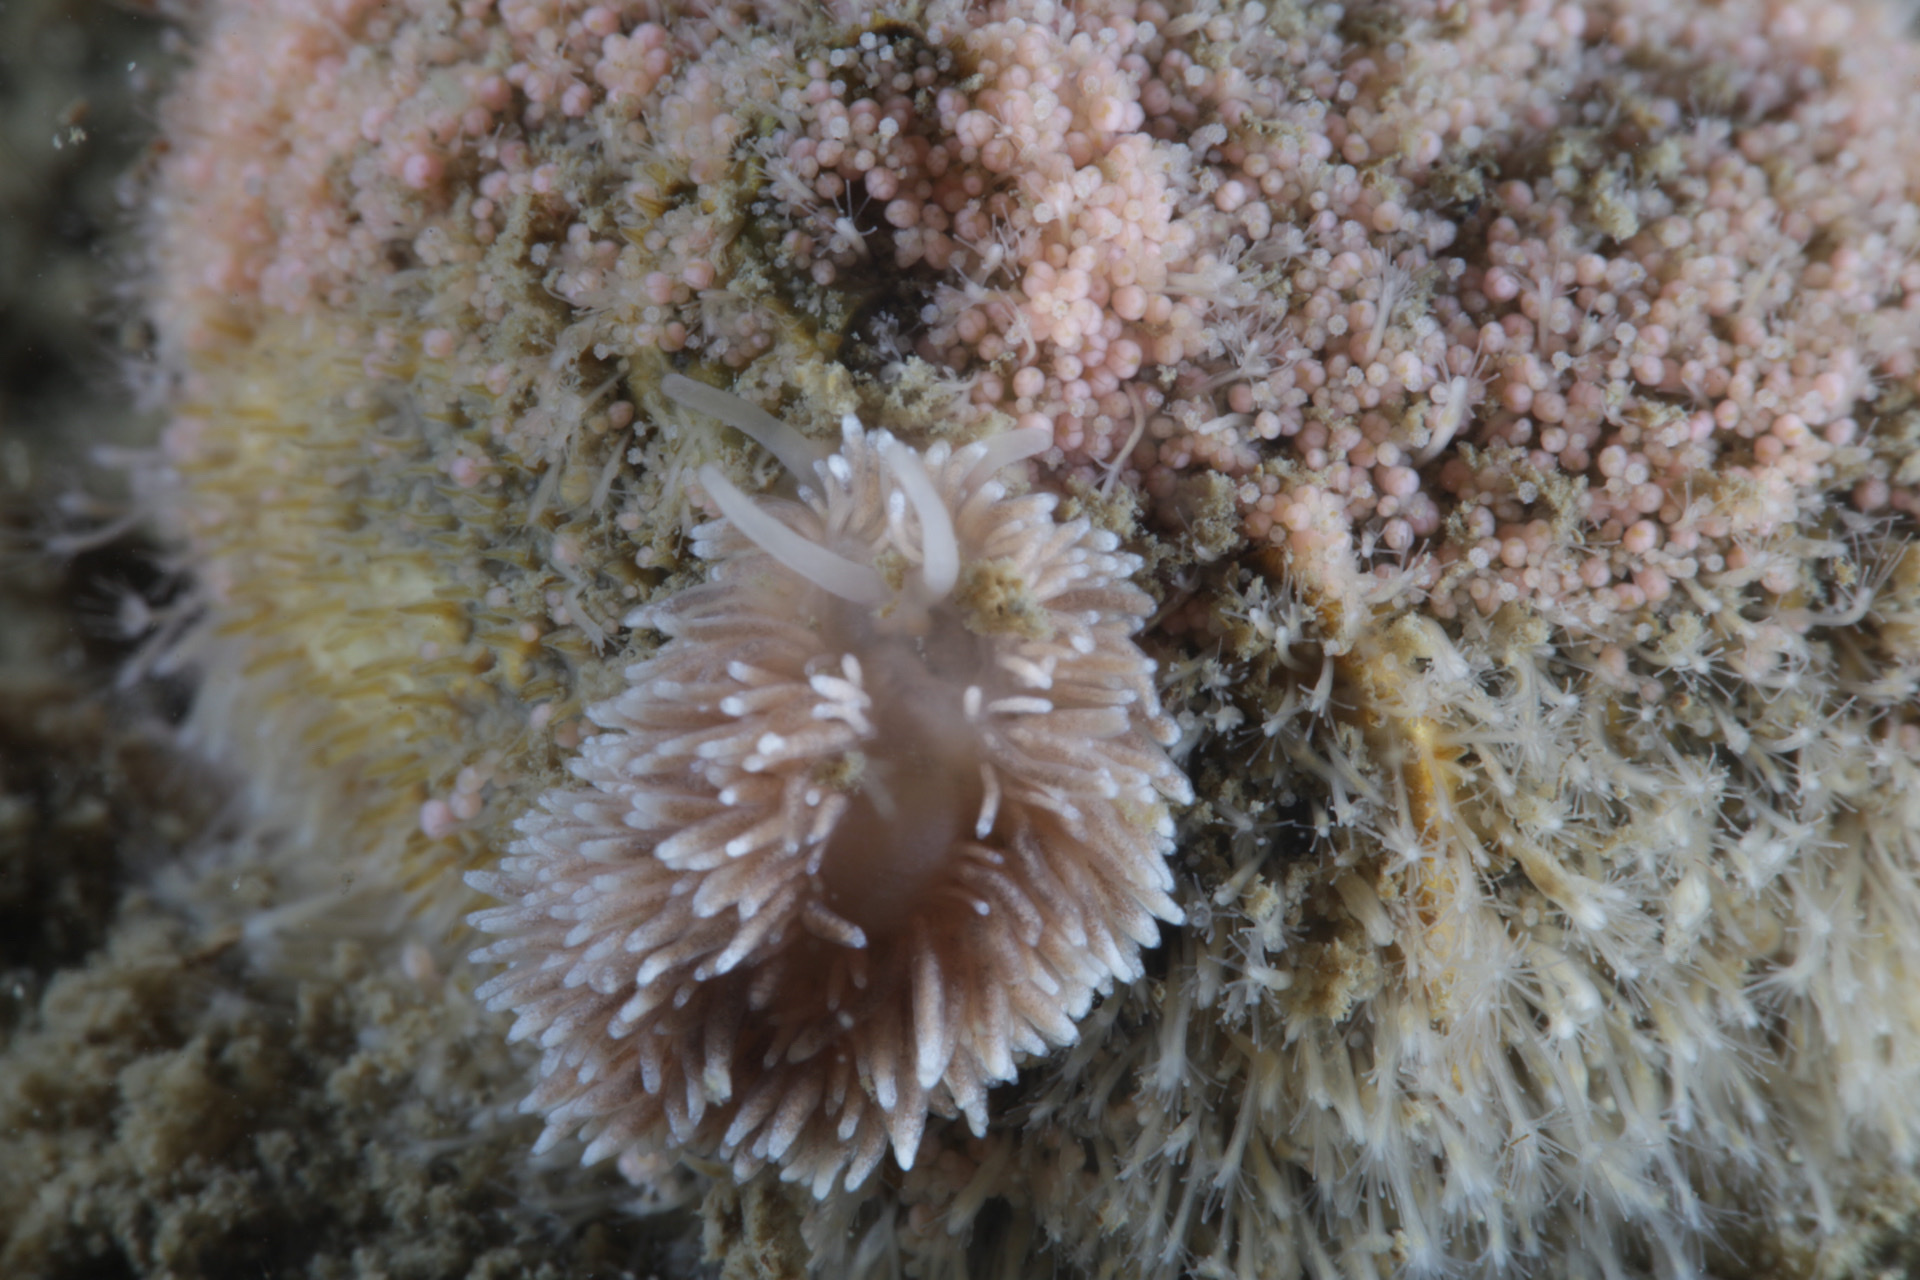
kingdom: Animalia
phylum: Mollusca
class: Gastropoda
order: Nudibranchia
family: Cuthonidae
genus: Cuthona
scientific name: Cuthona nana
